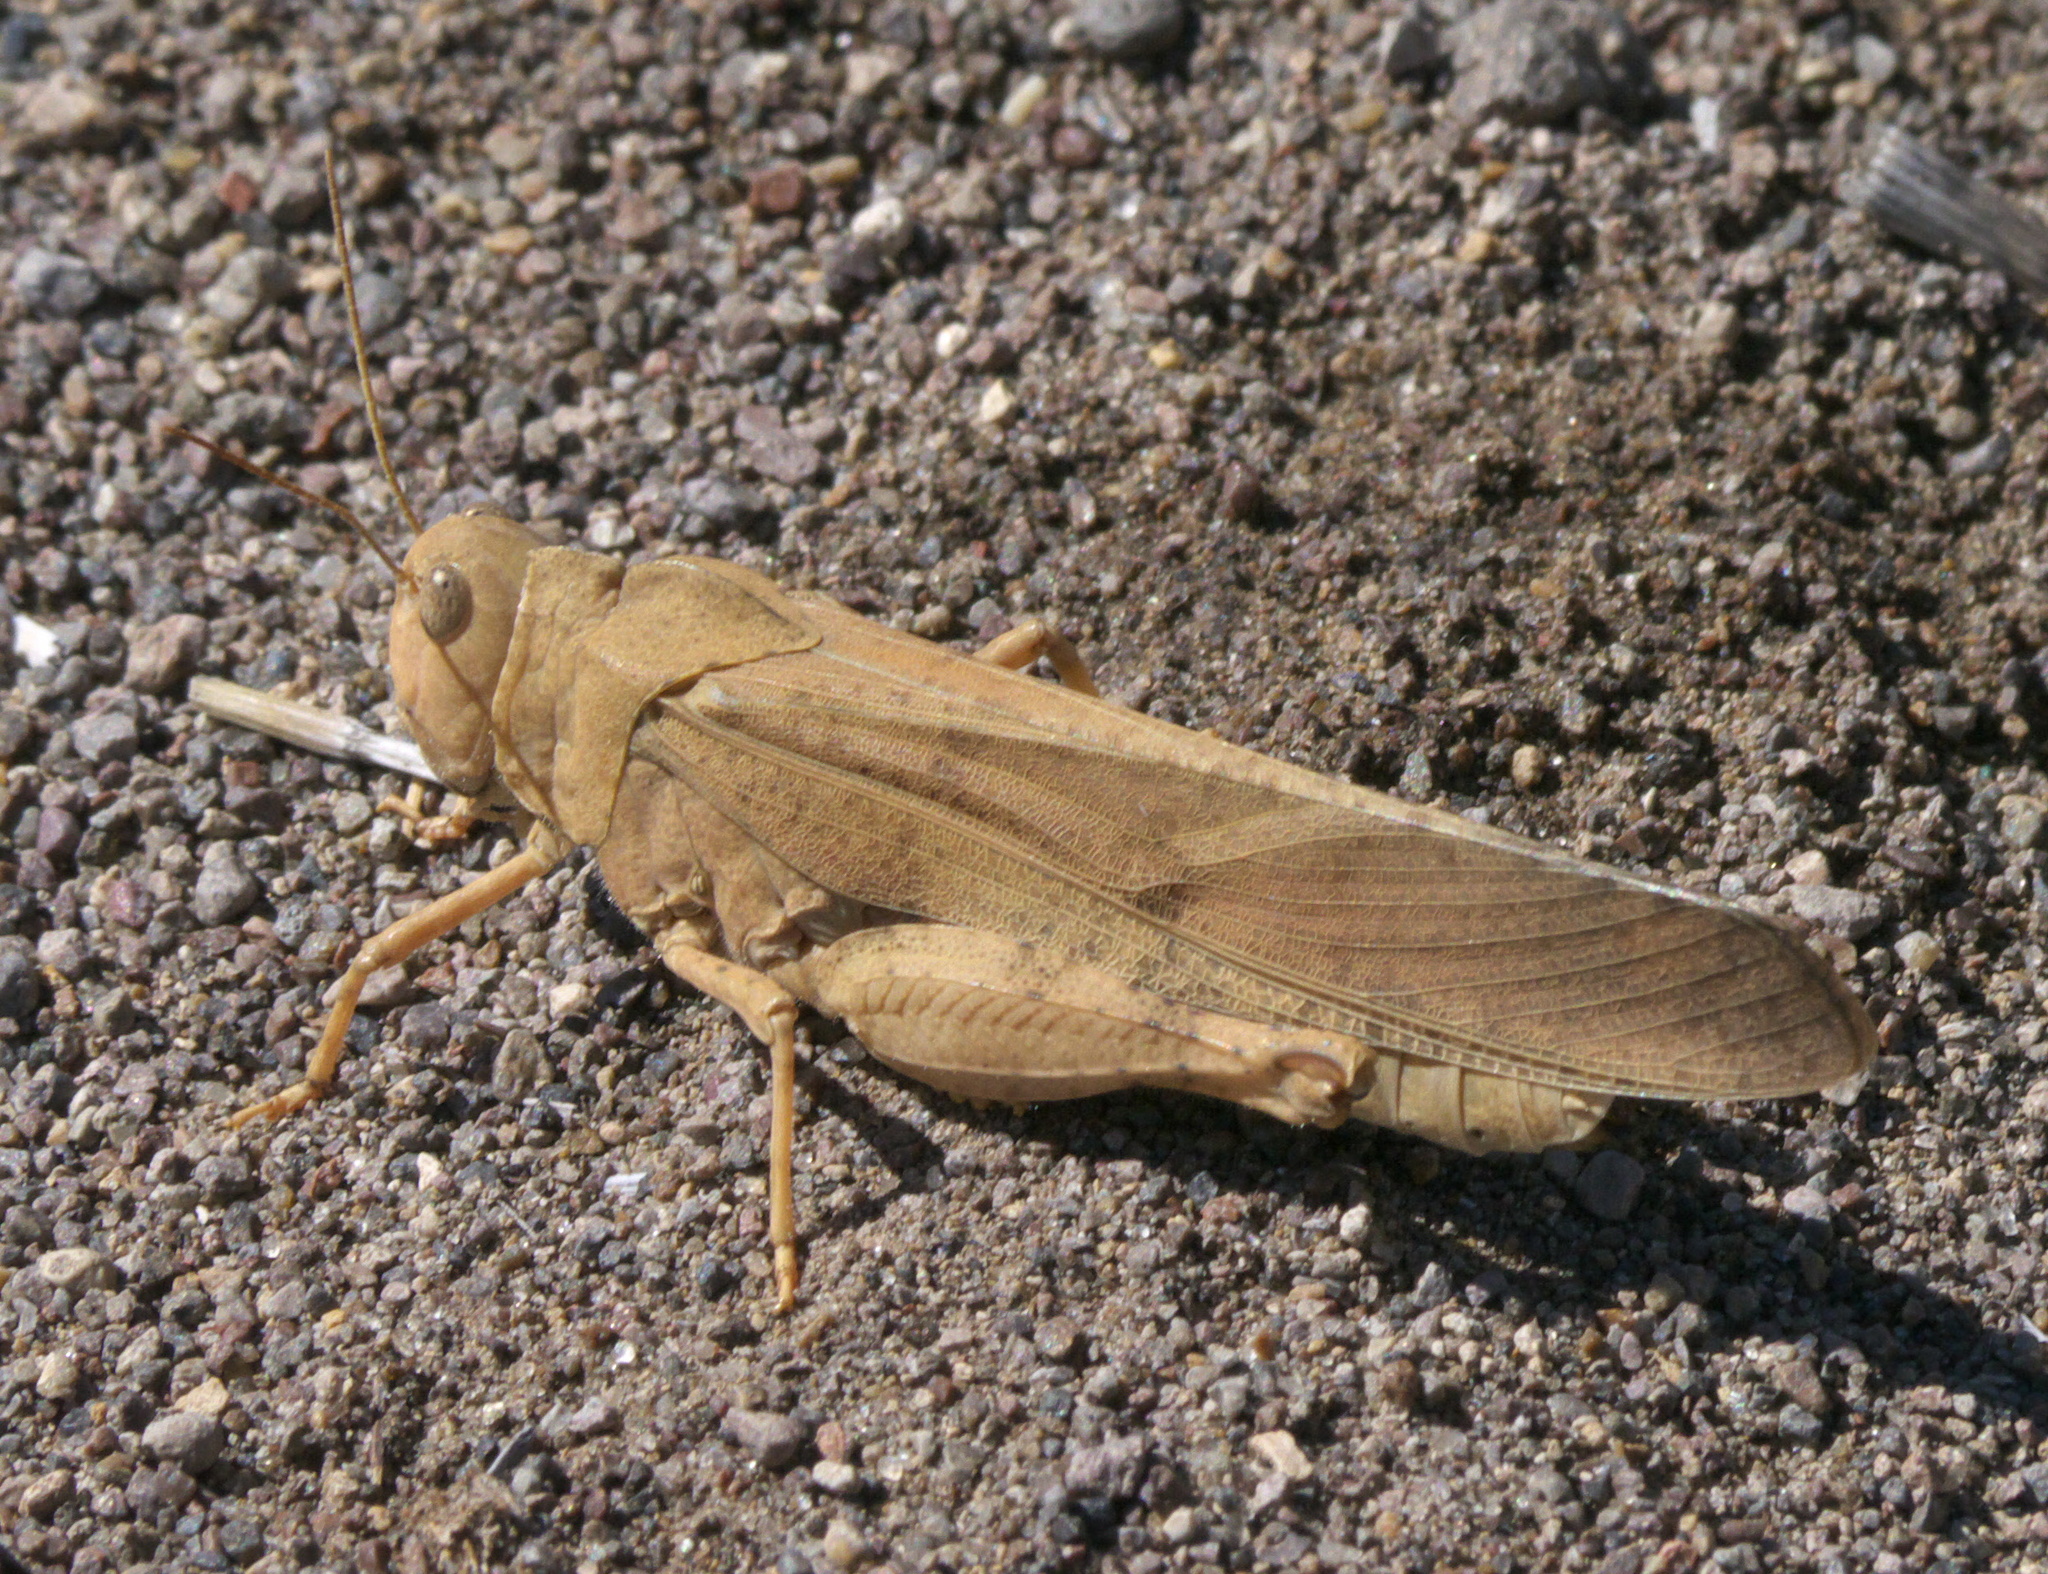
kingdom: Animalia
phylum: Arthropoda
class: Insecta
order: Orthoptera
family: Acrididae
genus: Dissosteira
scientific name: Dissosteira carolina
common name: Carolina grasshopper
